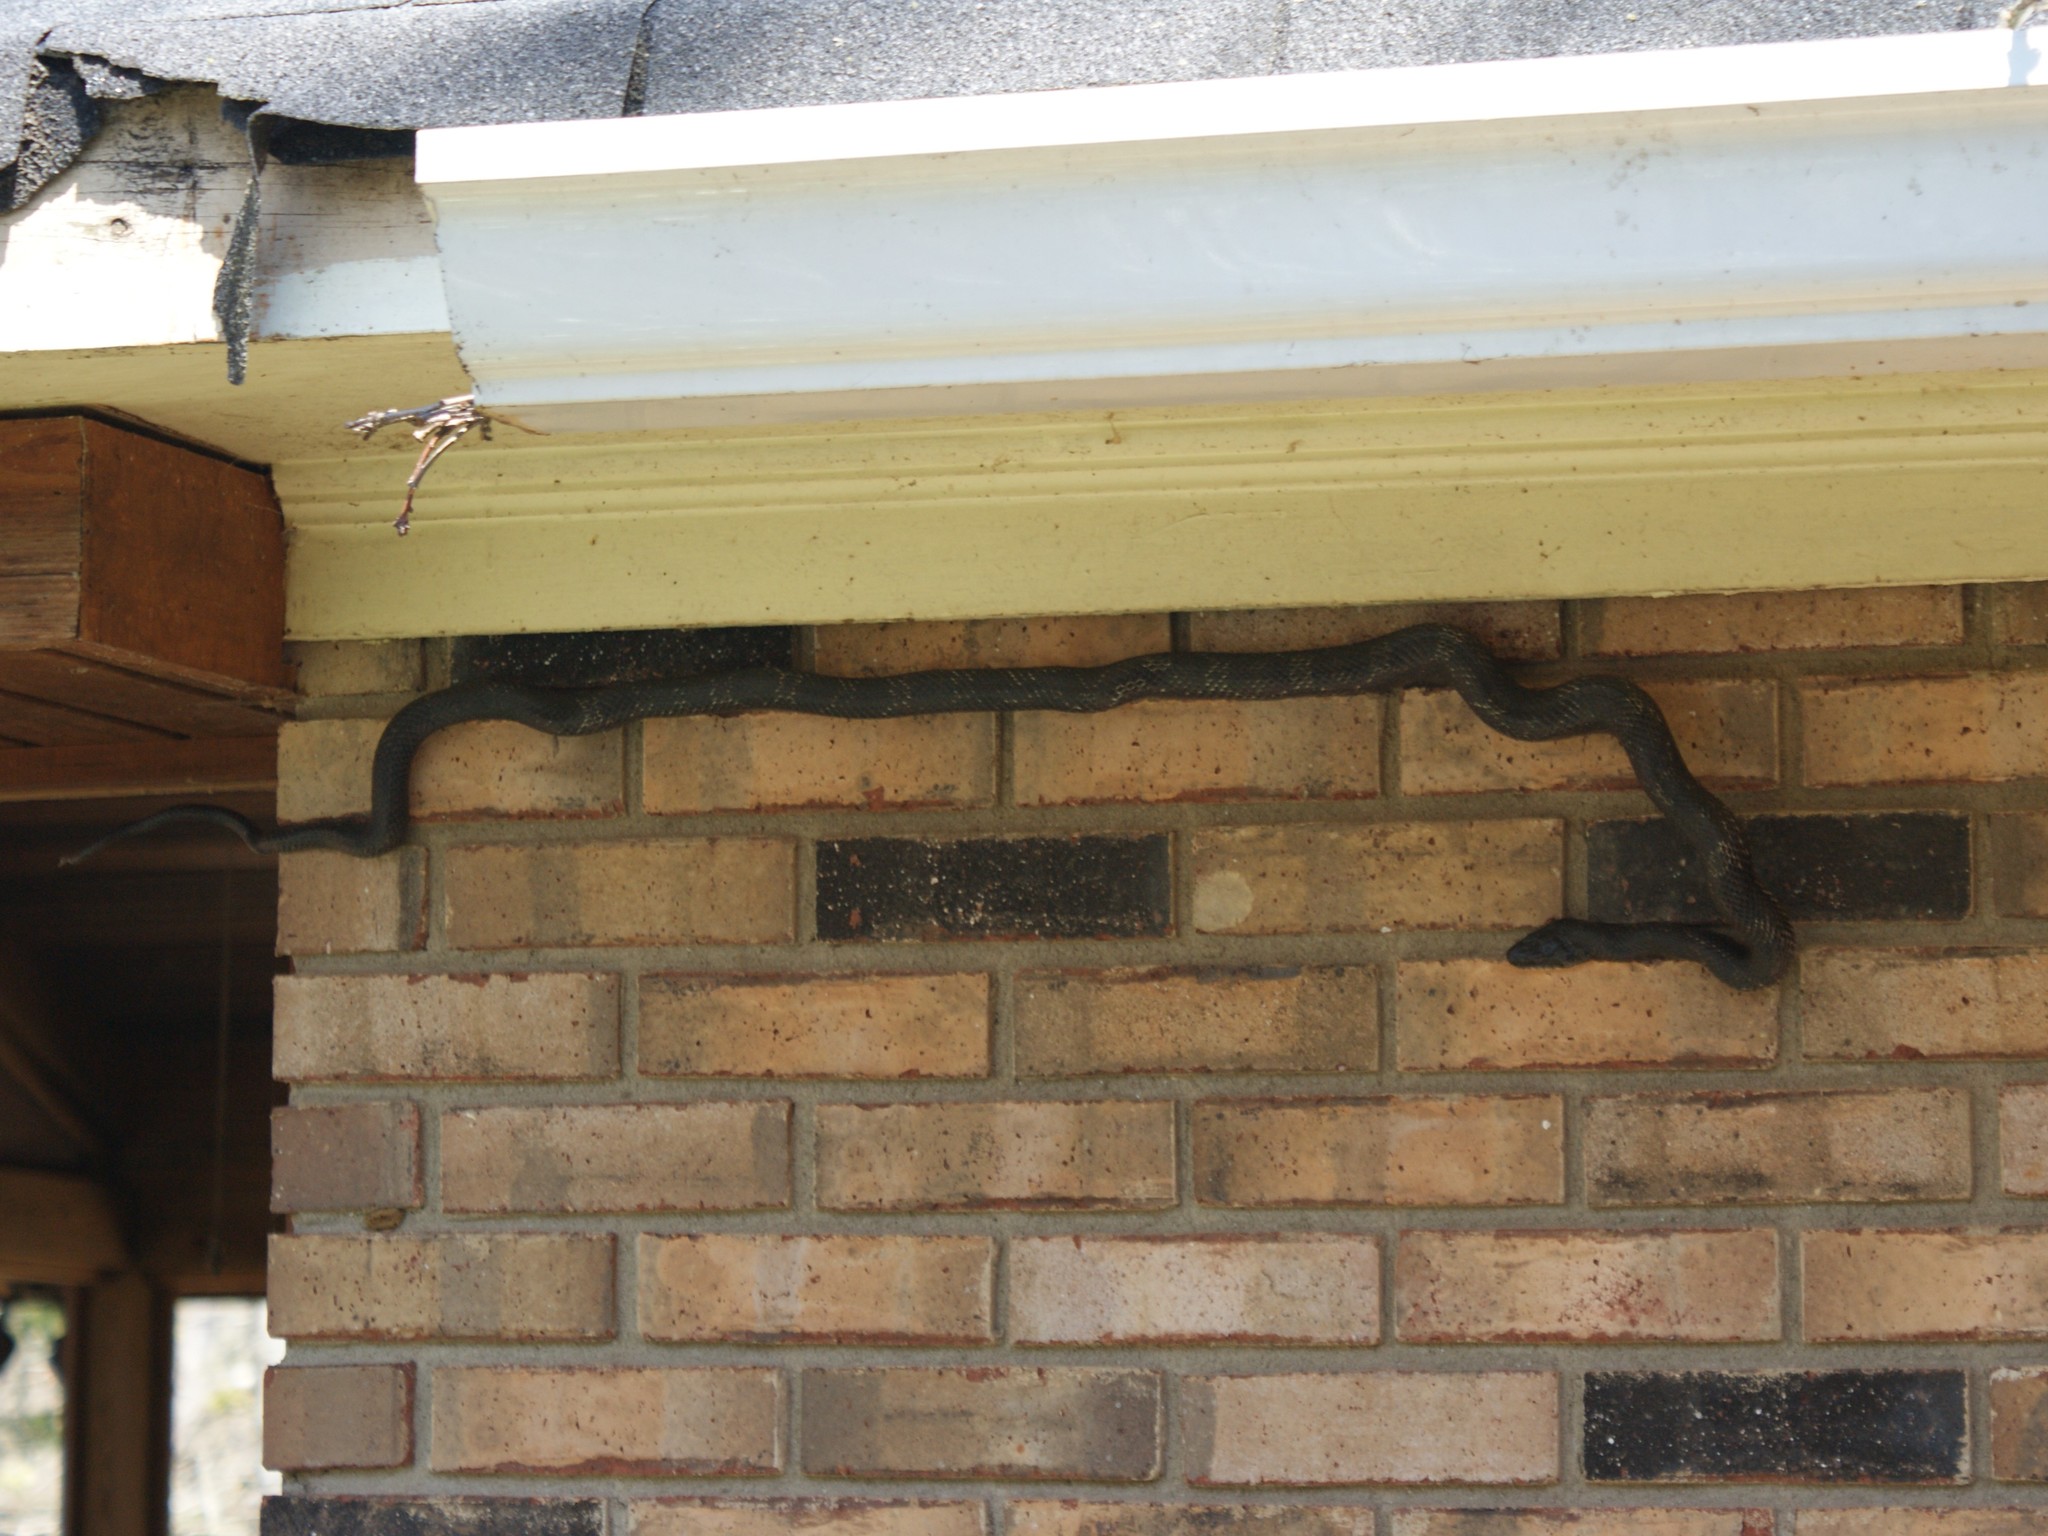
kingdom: Animalia
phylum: Chordata
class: Squamata
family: Colubridae
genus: Pantherophis
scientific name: Pantherophis alleghaniensis
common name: Eastern rat snake
